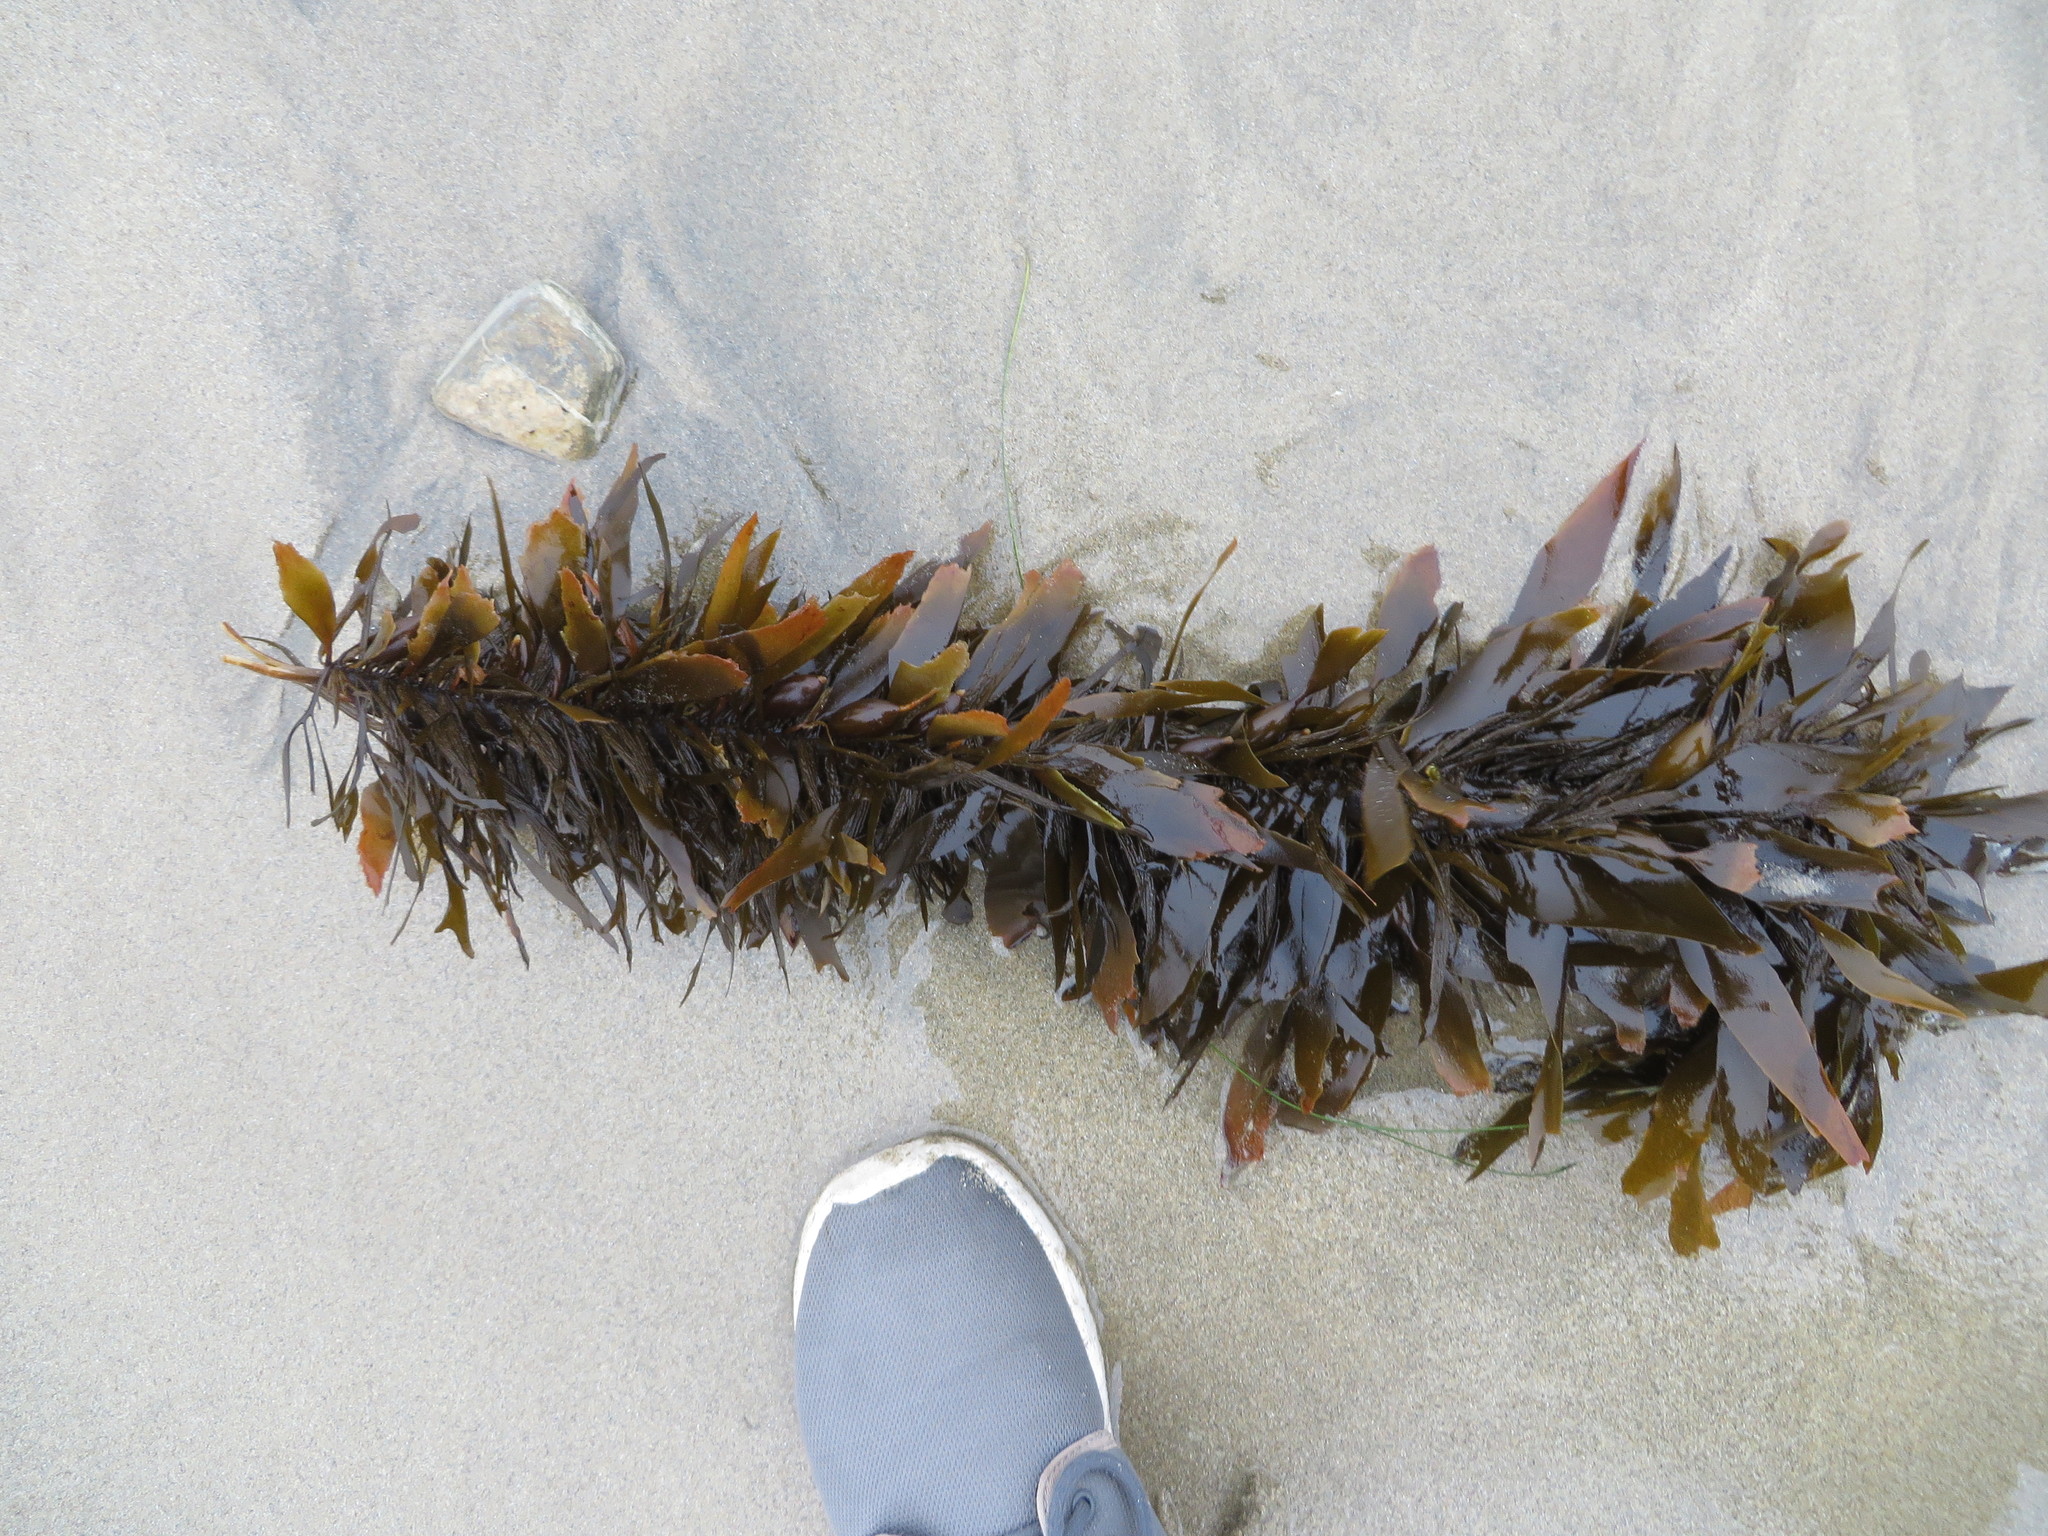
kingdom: Chromista
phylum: Ochrophyta
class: Phaeophyceae
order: Laminariales
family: Lessoniaceae
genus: Egregia
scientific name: Egregia menziesii
